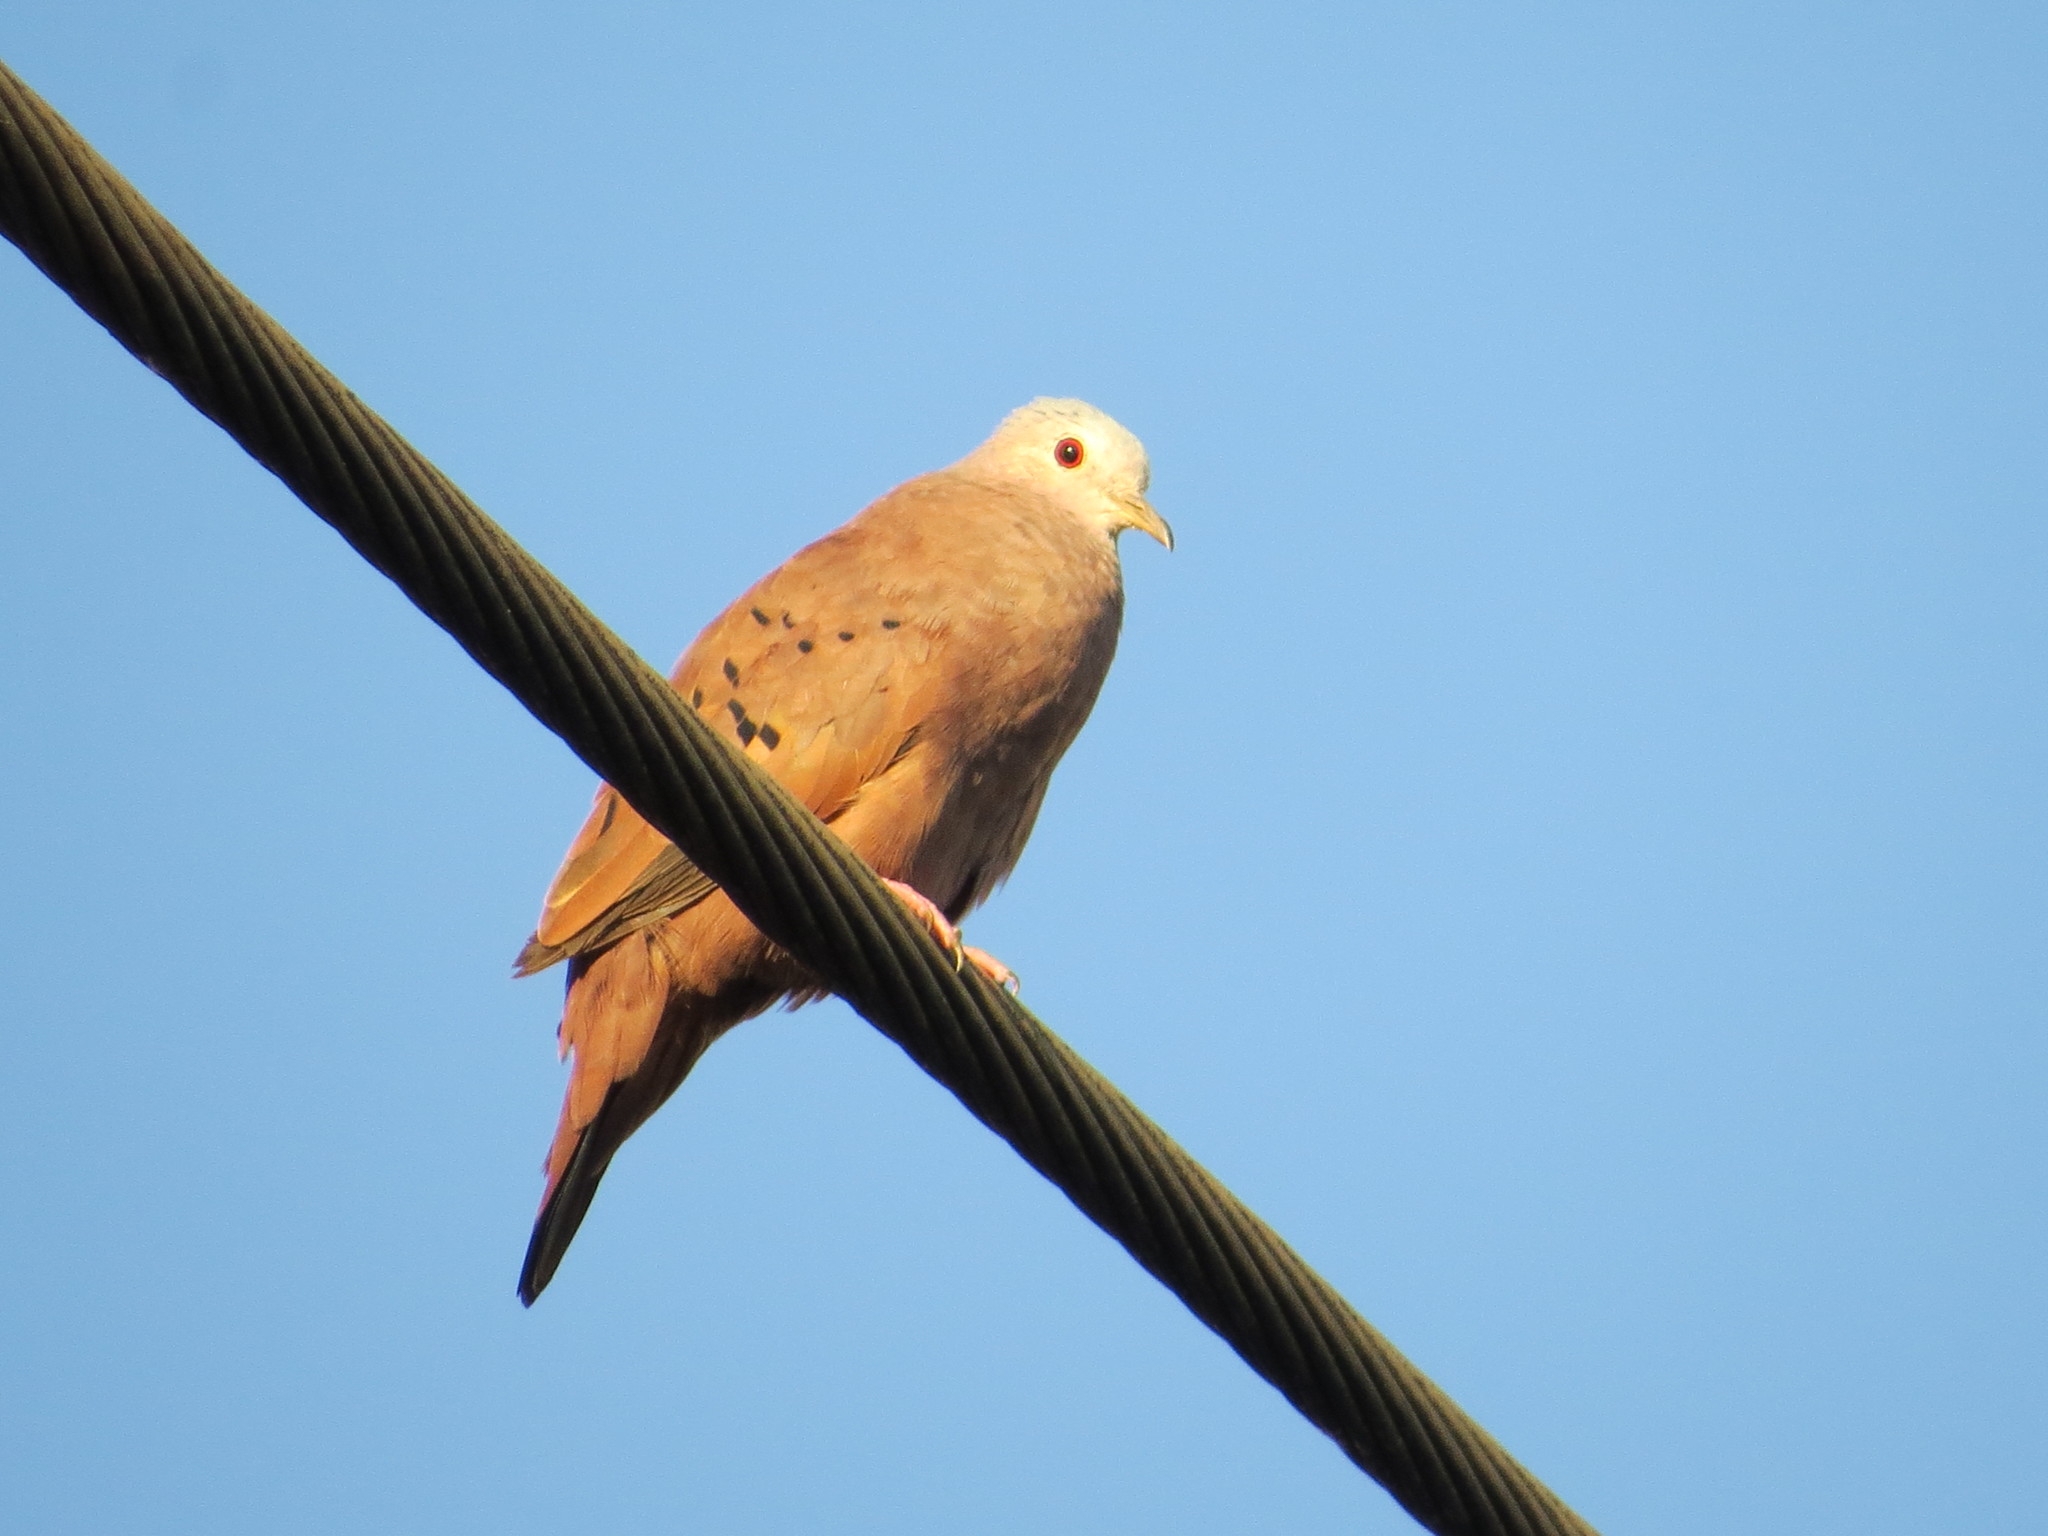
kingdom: Animalia
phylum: Chordata
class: Aves
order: Columbiformes
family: Columbidae
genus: Columbina
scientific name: Columbina talpacoti
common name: Ruddy ground dove
